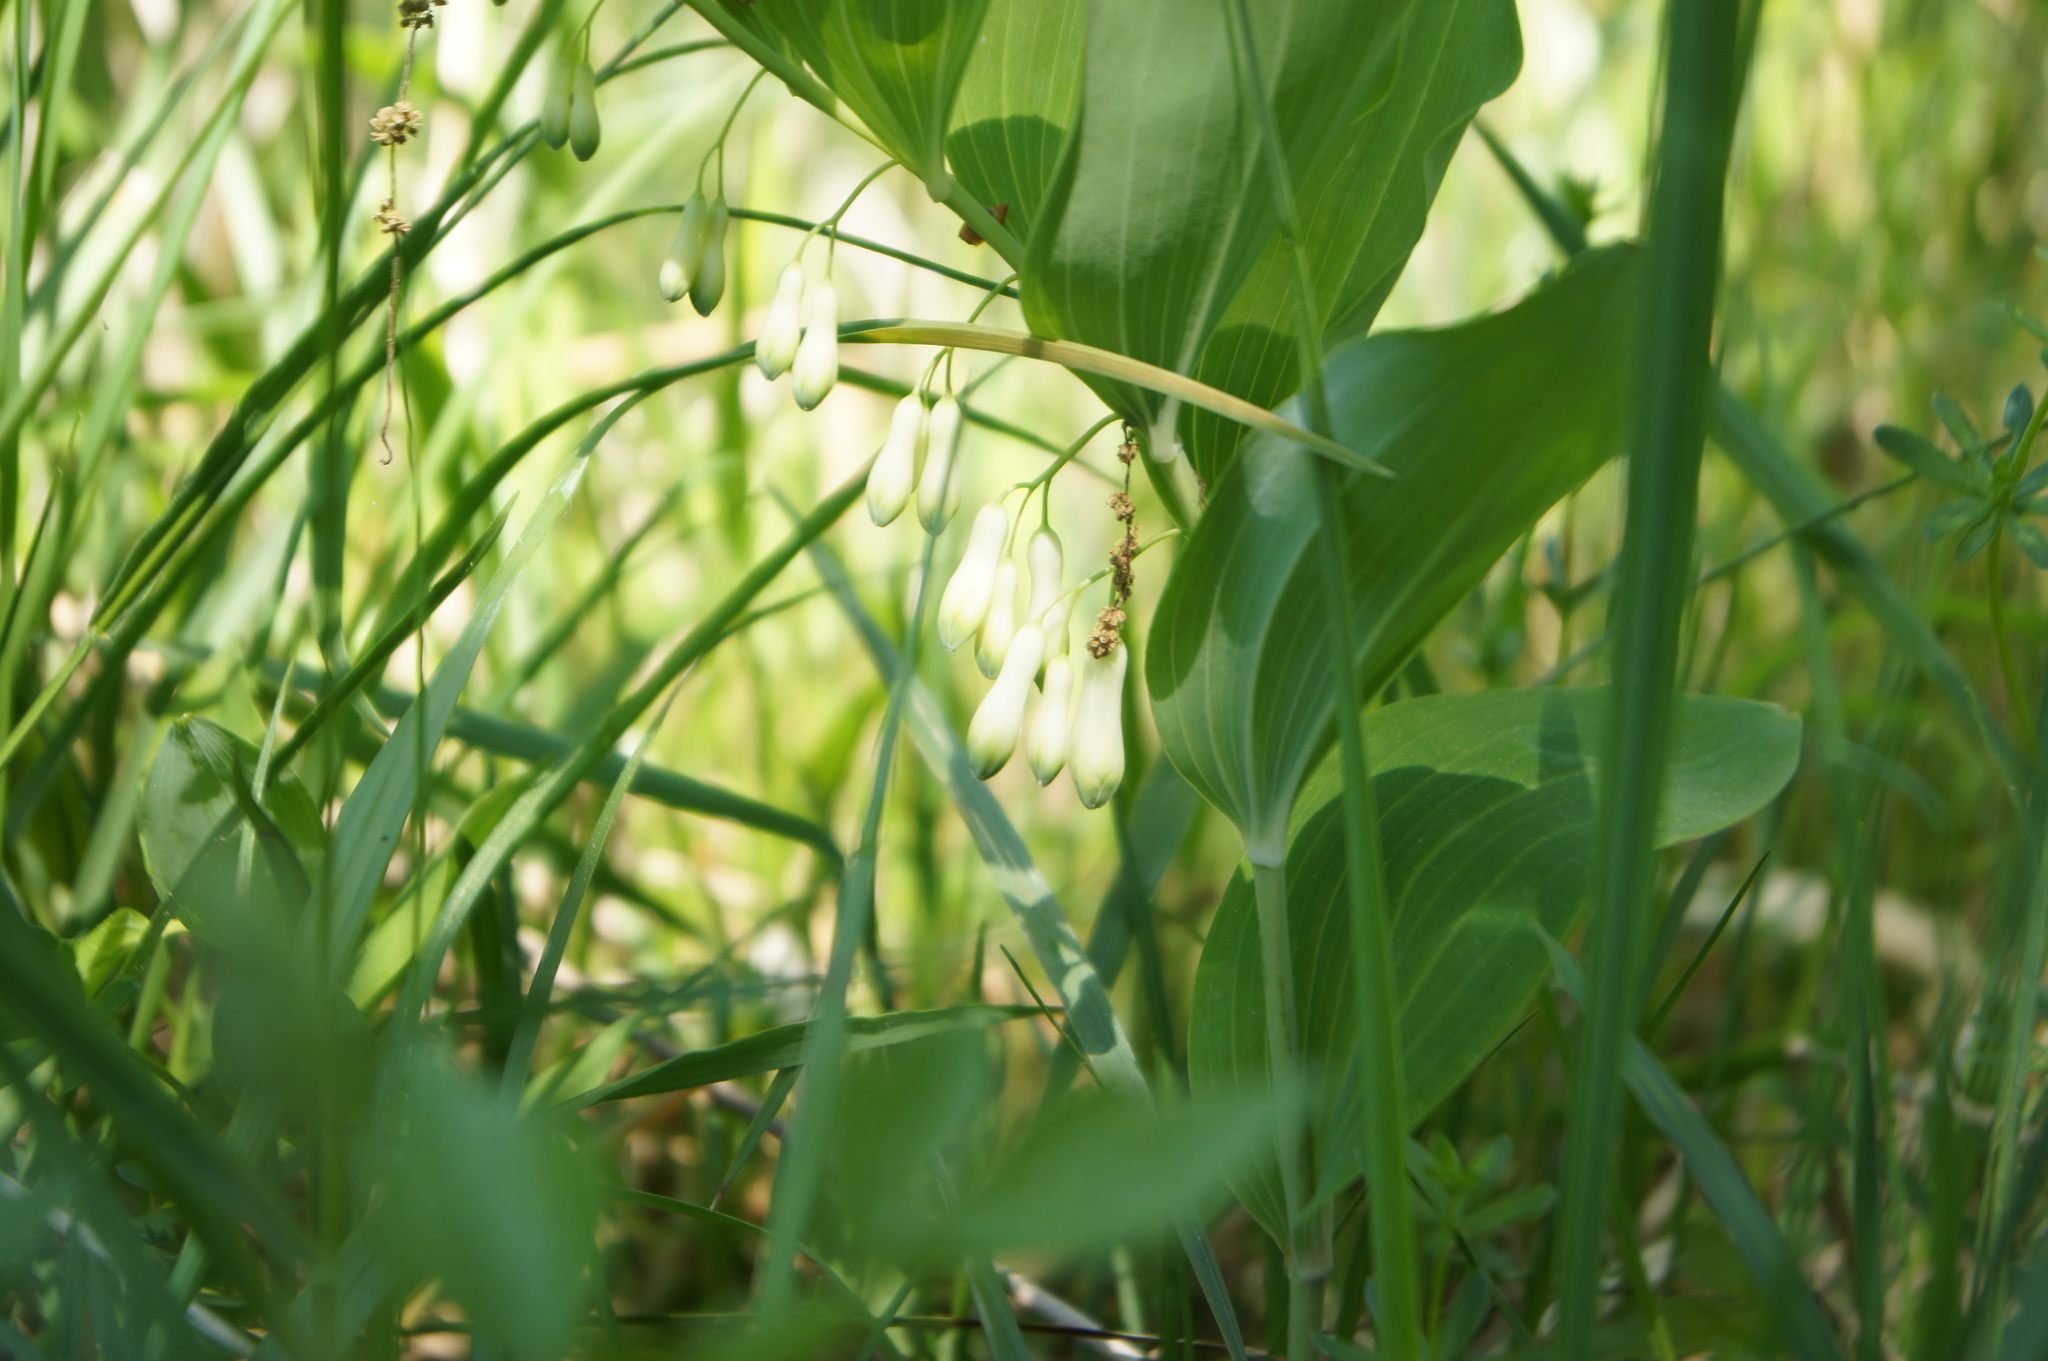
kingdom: Plantae
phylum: Tracheophyta
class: Liliopsida
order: Asparagales
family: Asparagaceae
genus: Polygonatum
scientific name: Polygonatum multiflorum
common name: Solomon's-seal
